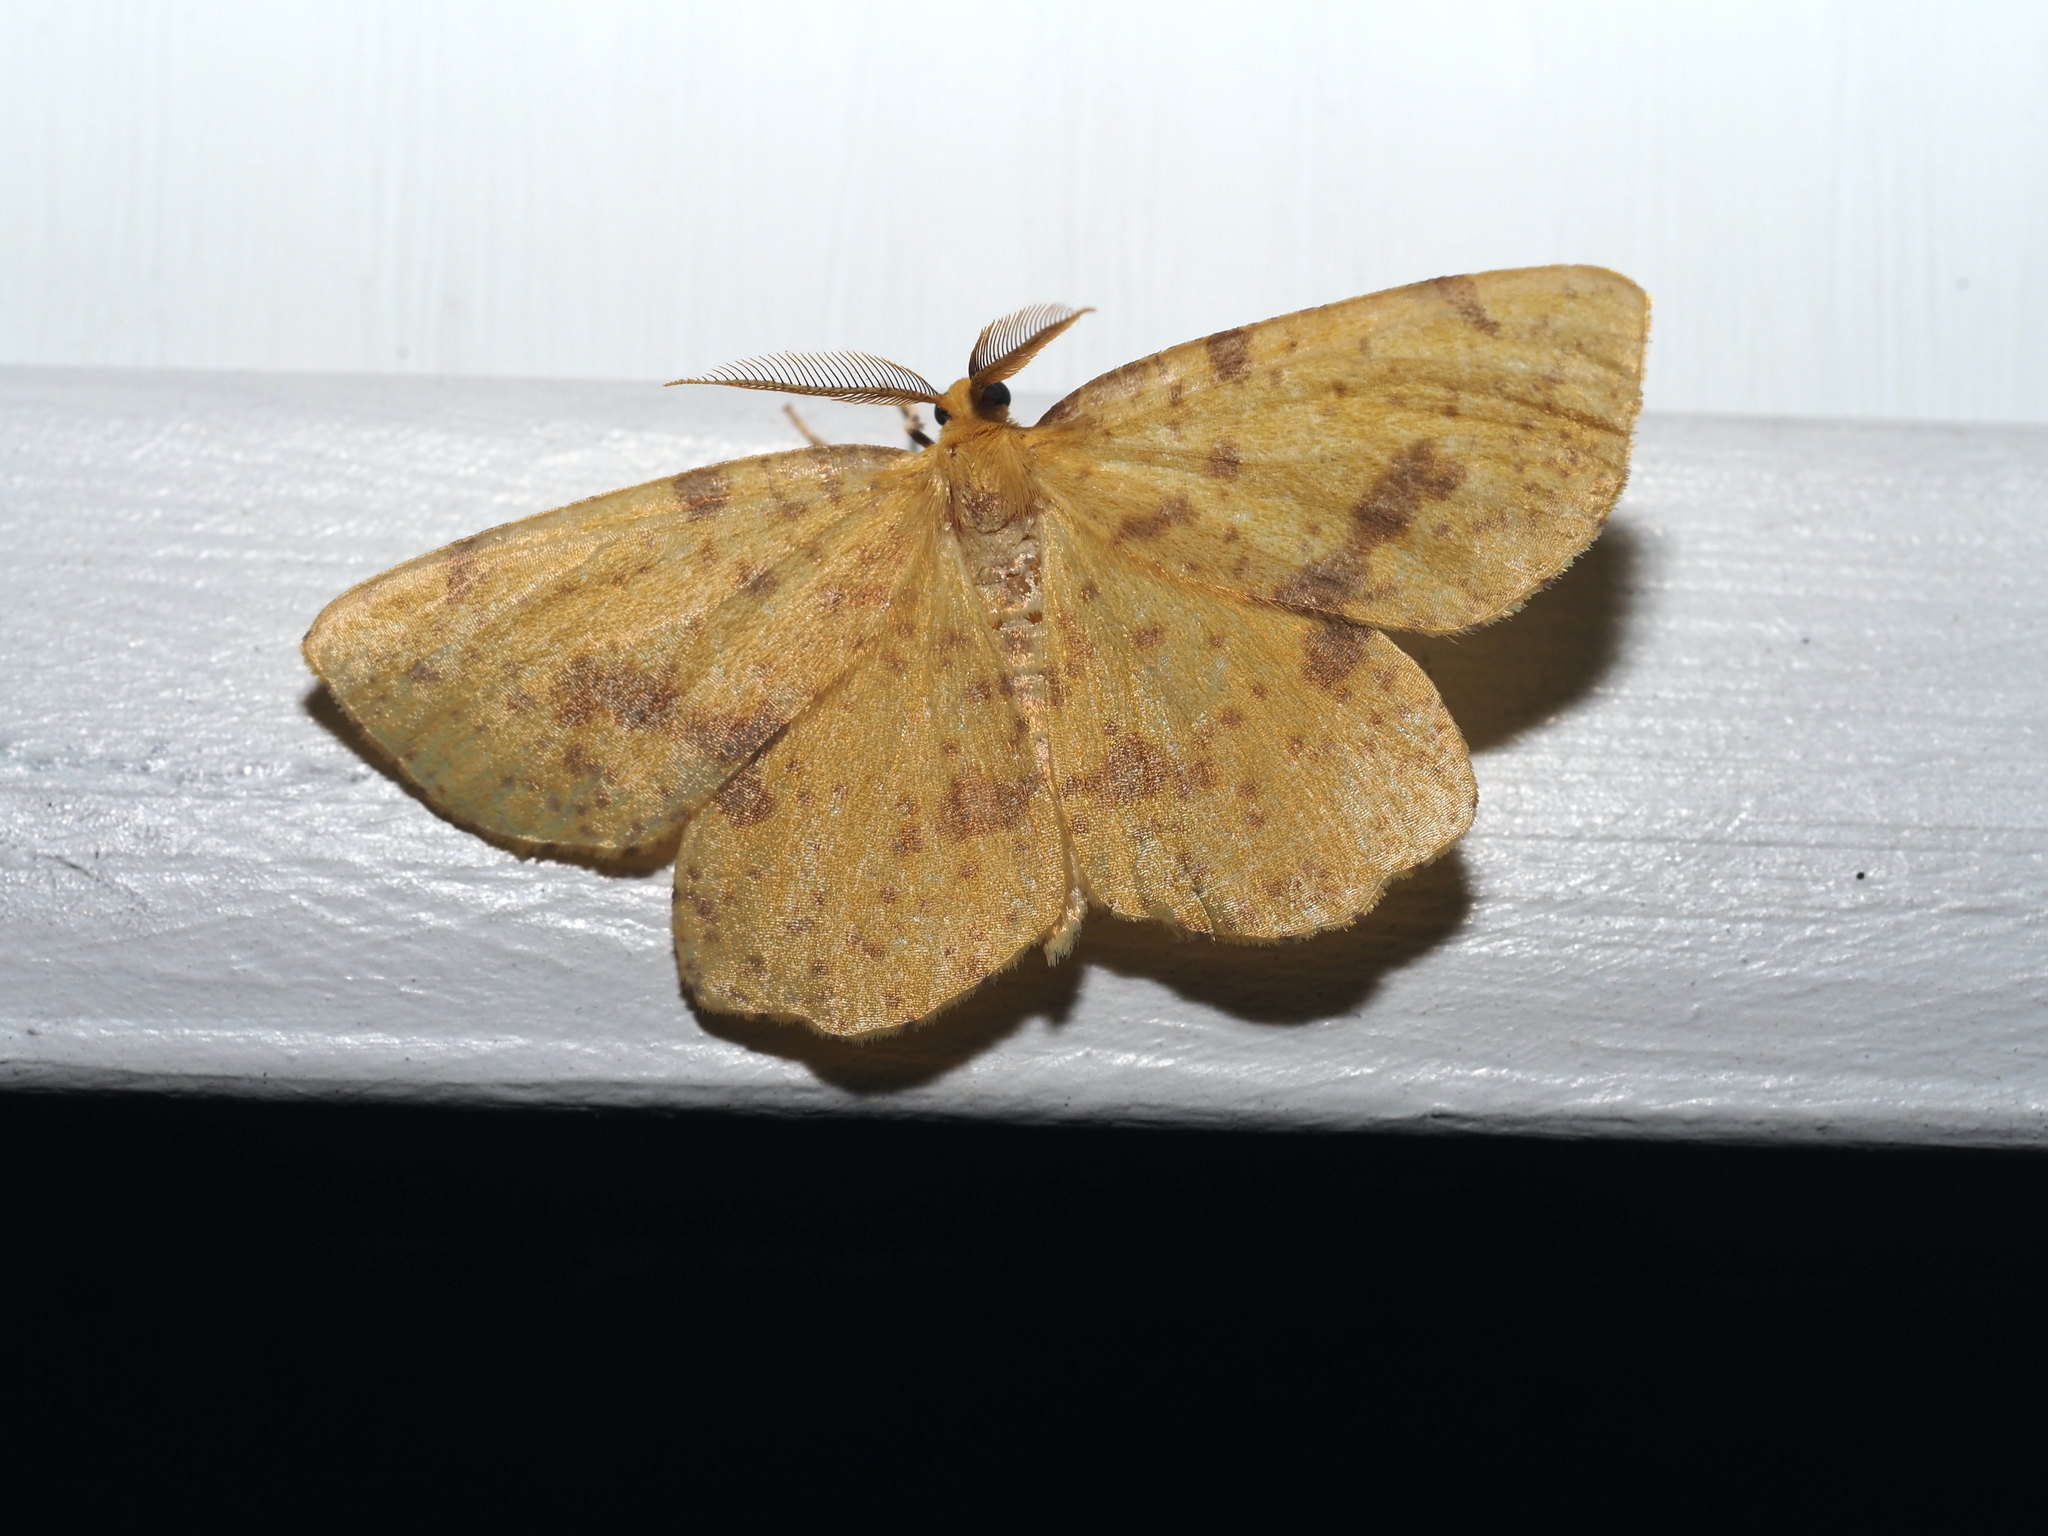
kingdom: Animalia
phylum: Arthropoda
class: Insecta
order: Lepidoptera
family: Geometridae
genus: Xanthotype
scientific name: Xanthotype
